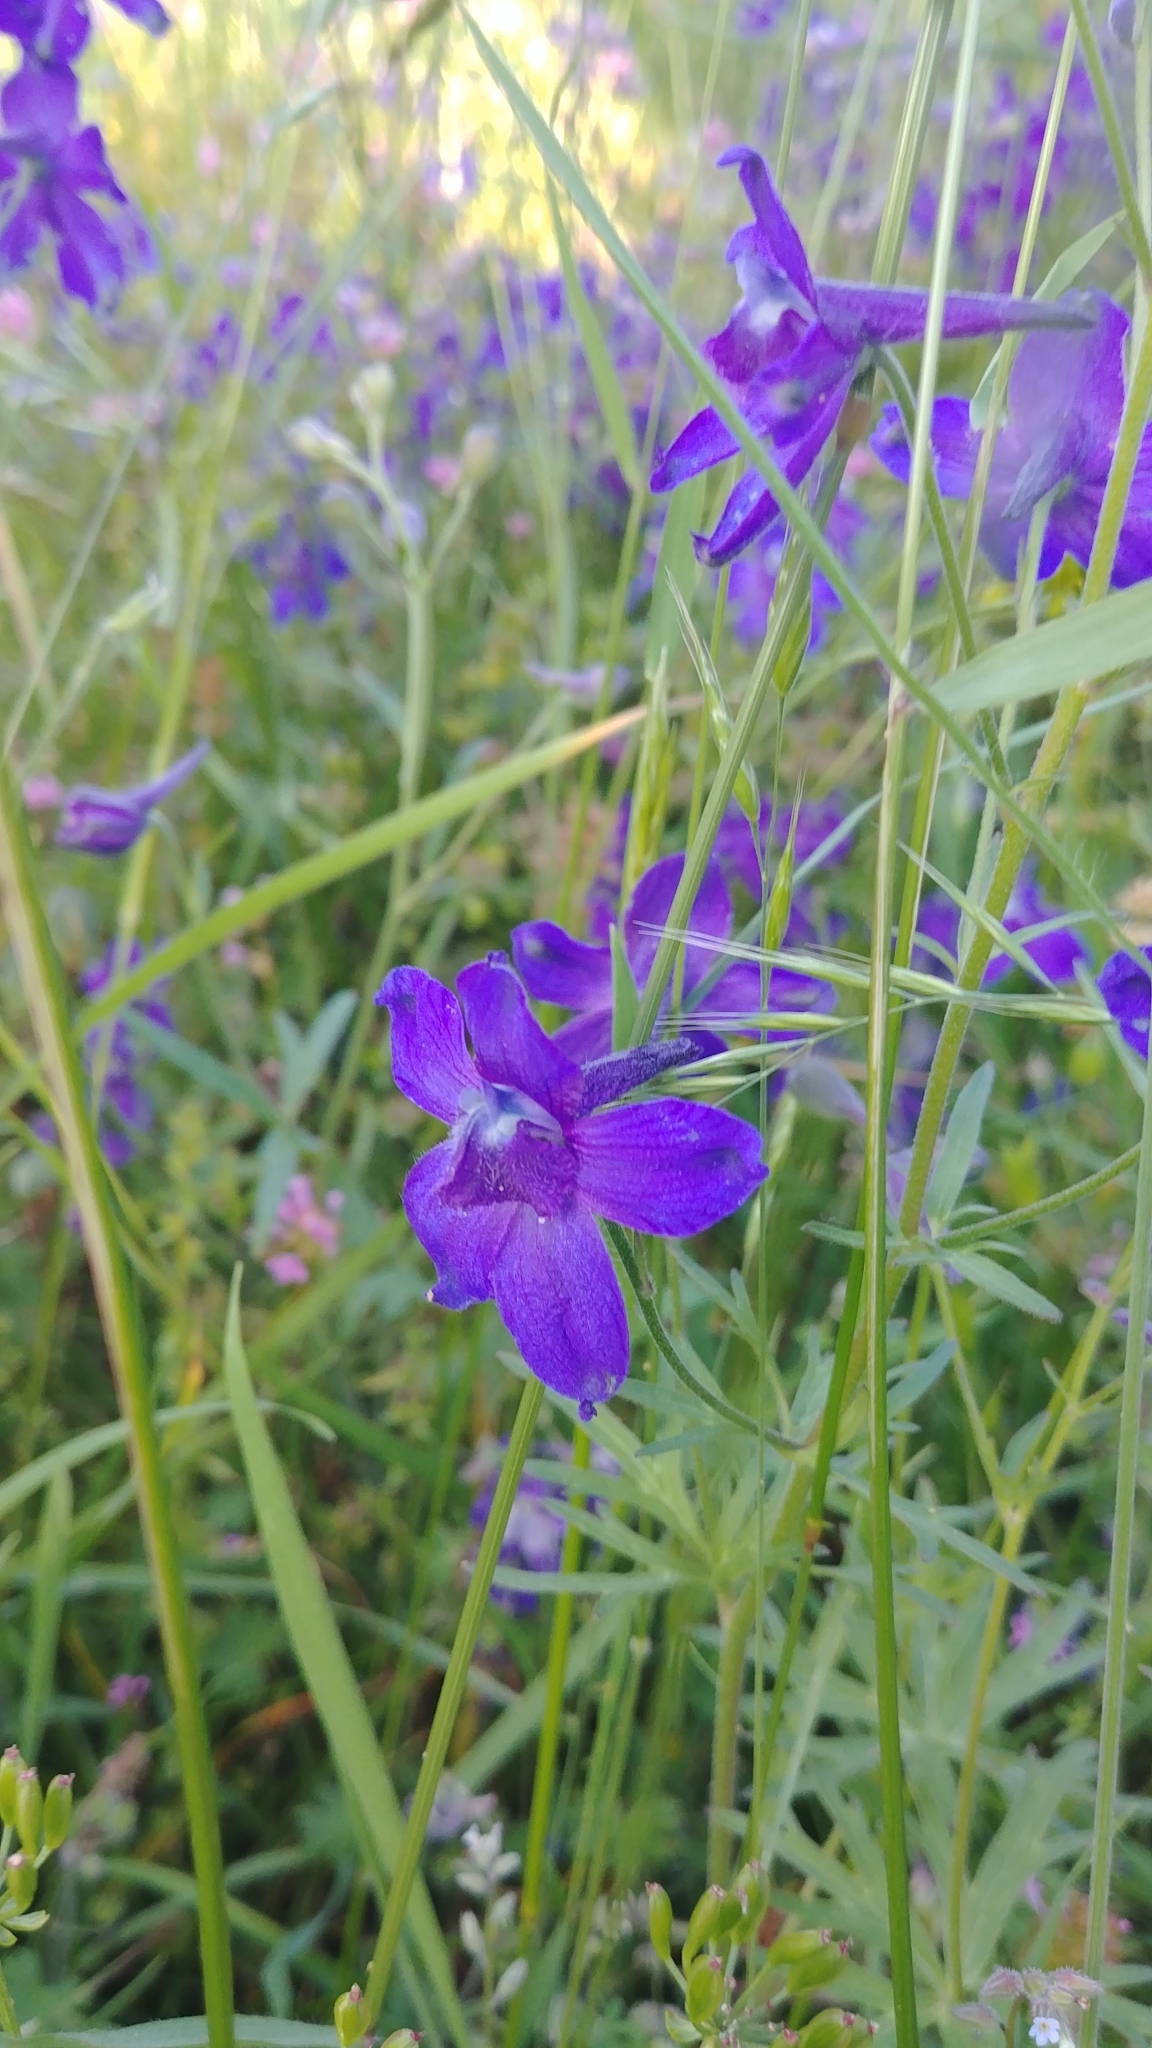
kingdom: Plantae
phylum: Tracheophyta
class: Magnoliopsida
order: Ranunculales
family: Ranunculaceae
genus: Delphinium
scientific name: Delphinium menziesii
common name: Menzies's larkspur
